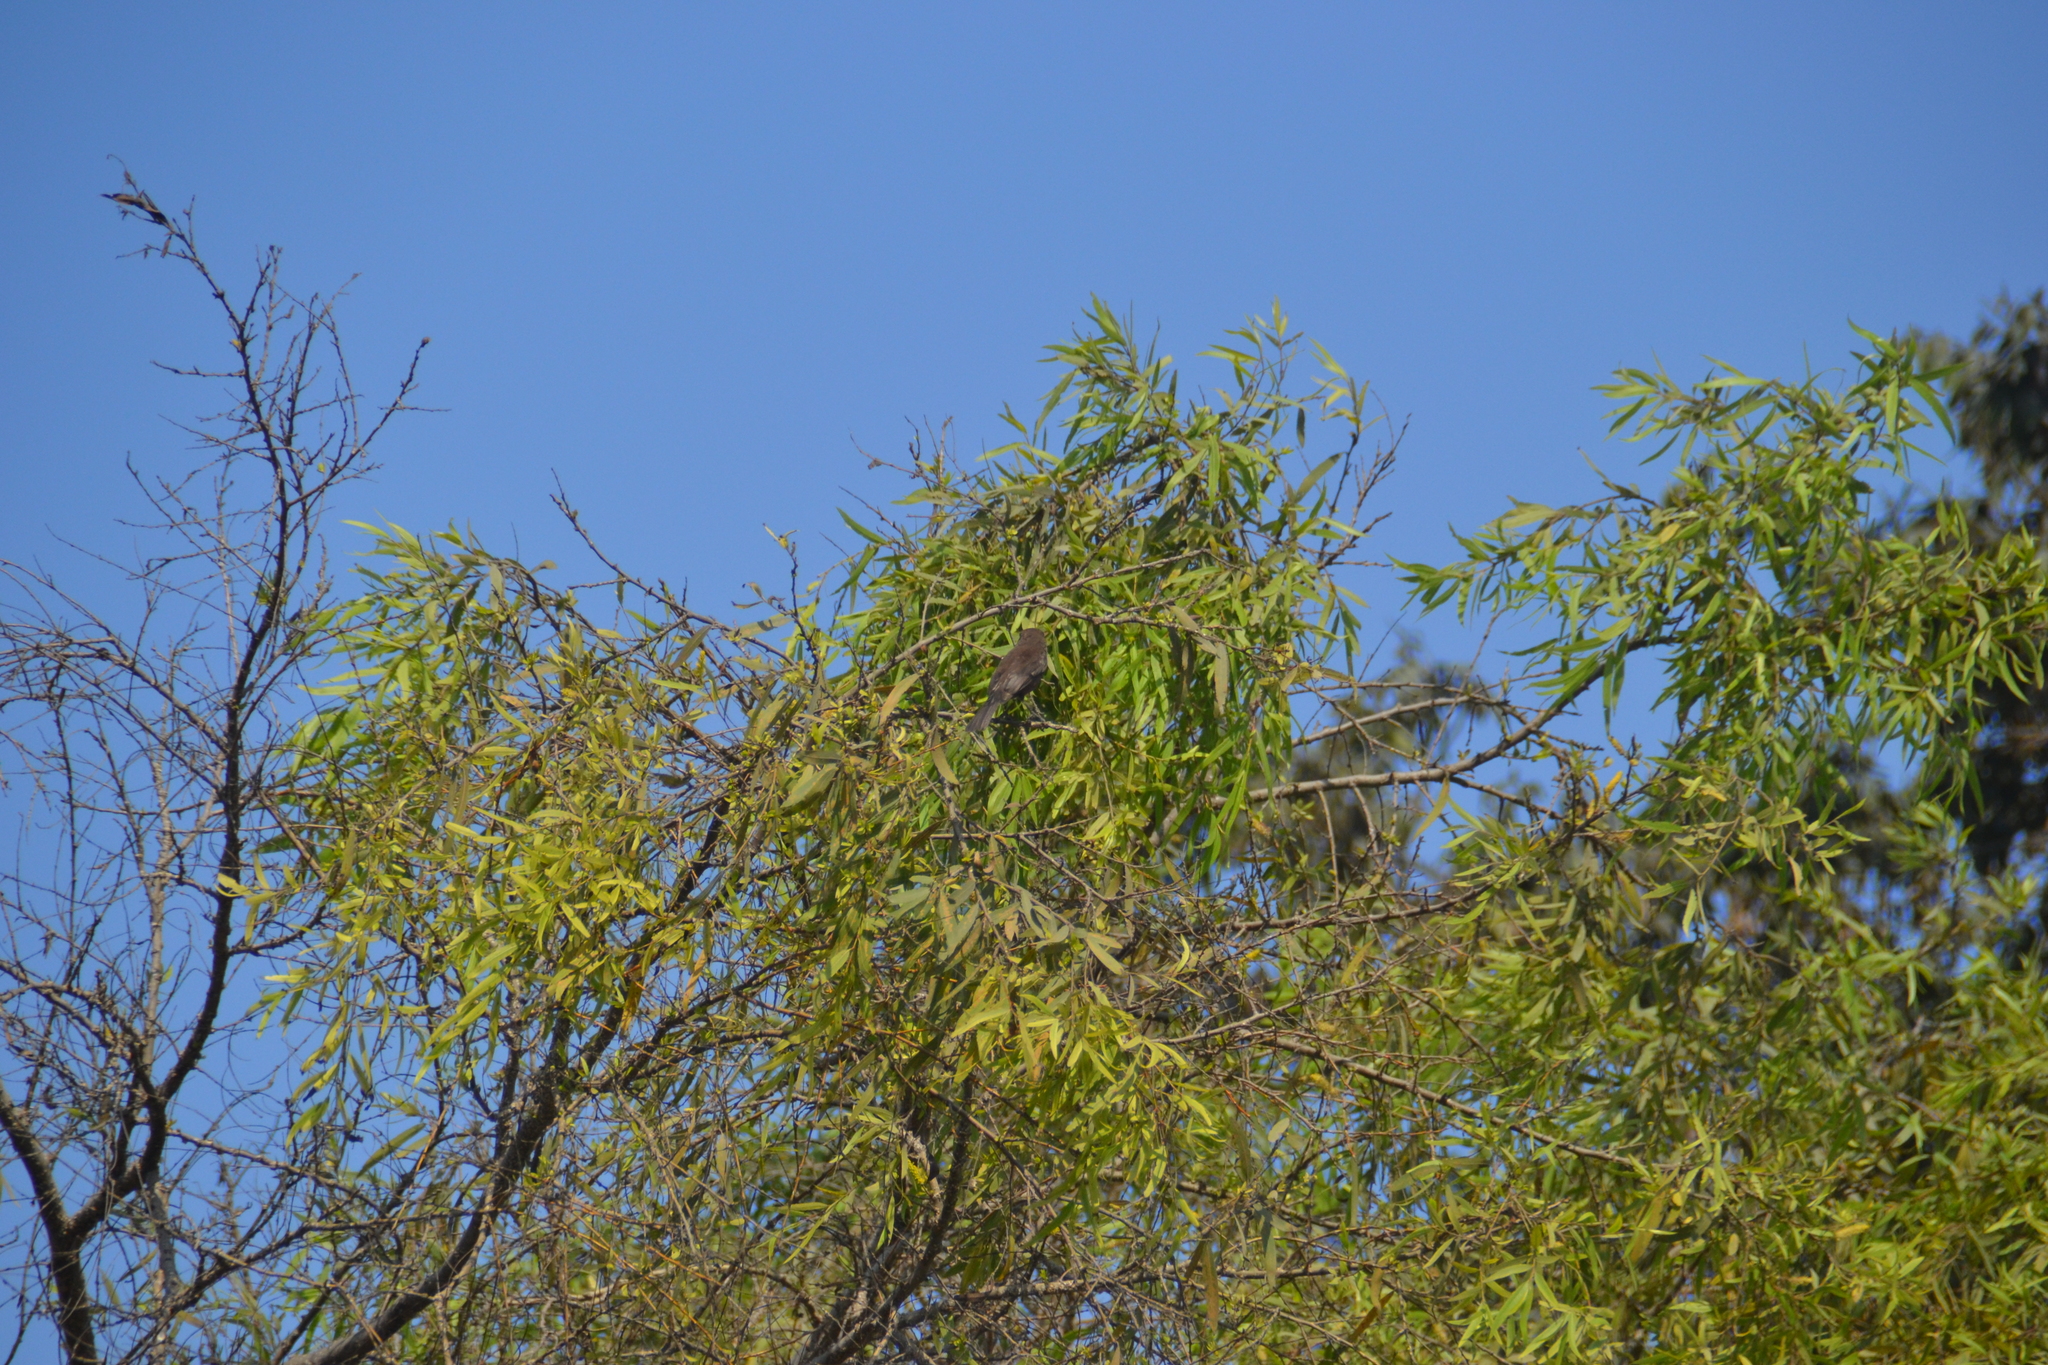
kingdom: Animalia
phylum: Chordata
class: Aves
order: Passeriformes
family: Tyrannidae
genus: Pyrocephalus
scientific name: Pyrocephalus rubinus
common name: Vermilion flycatcher
